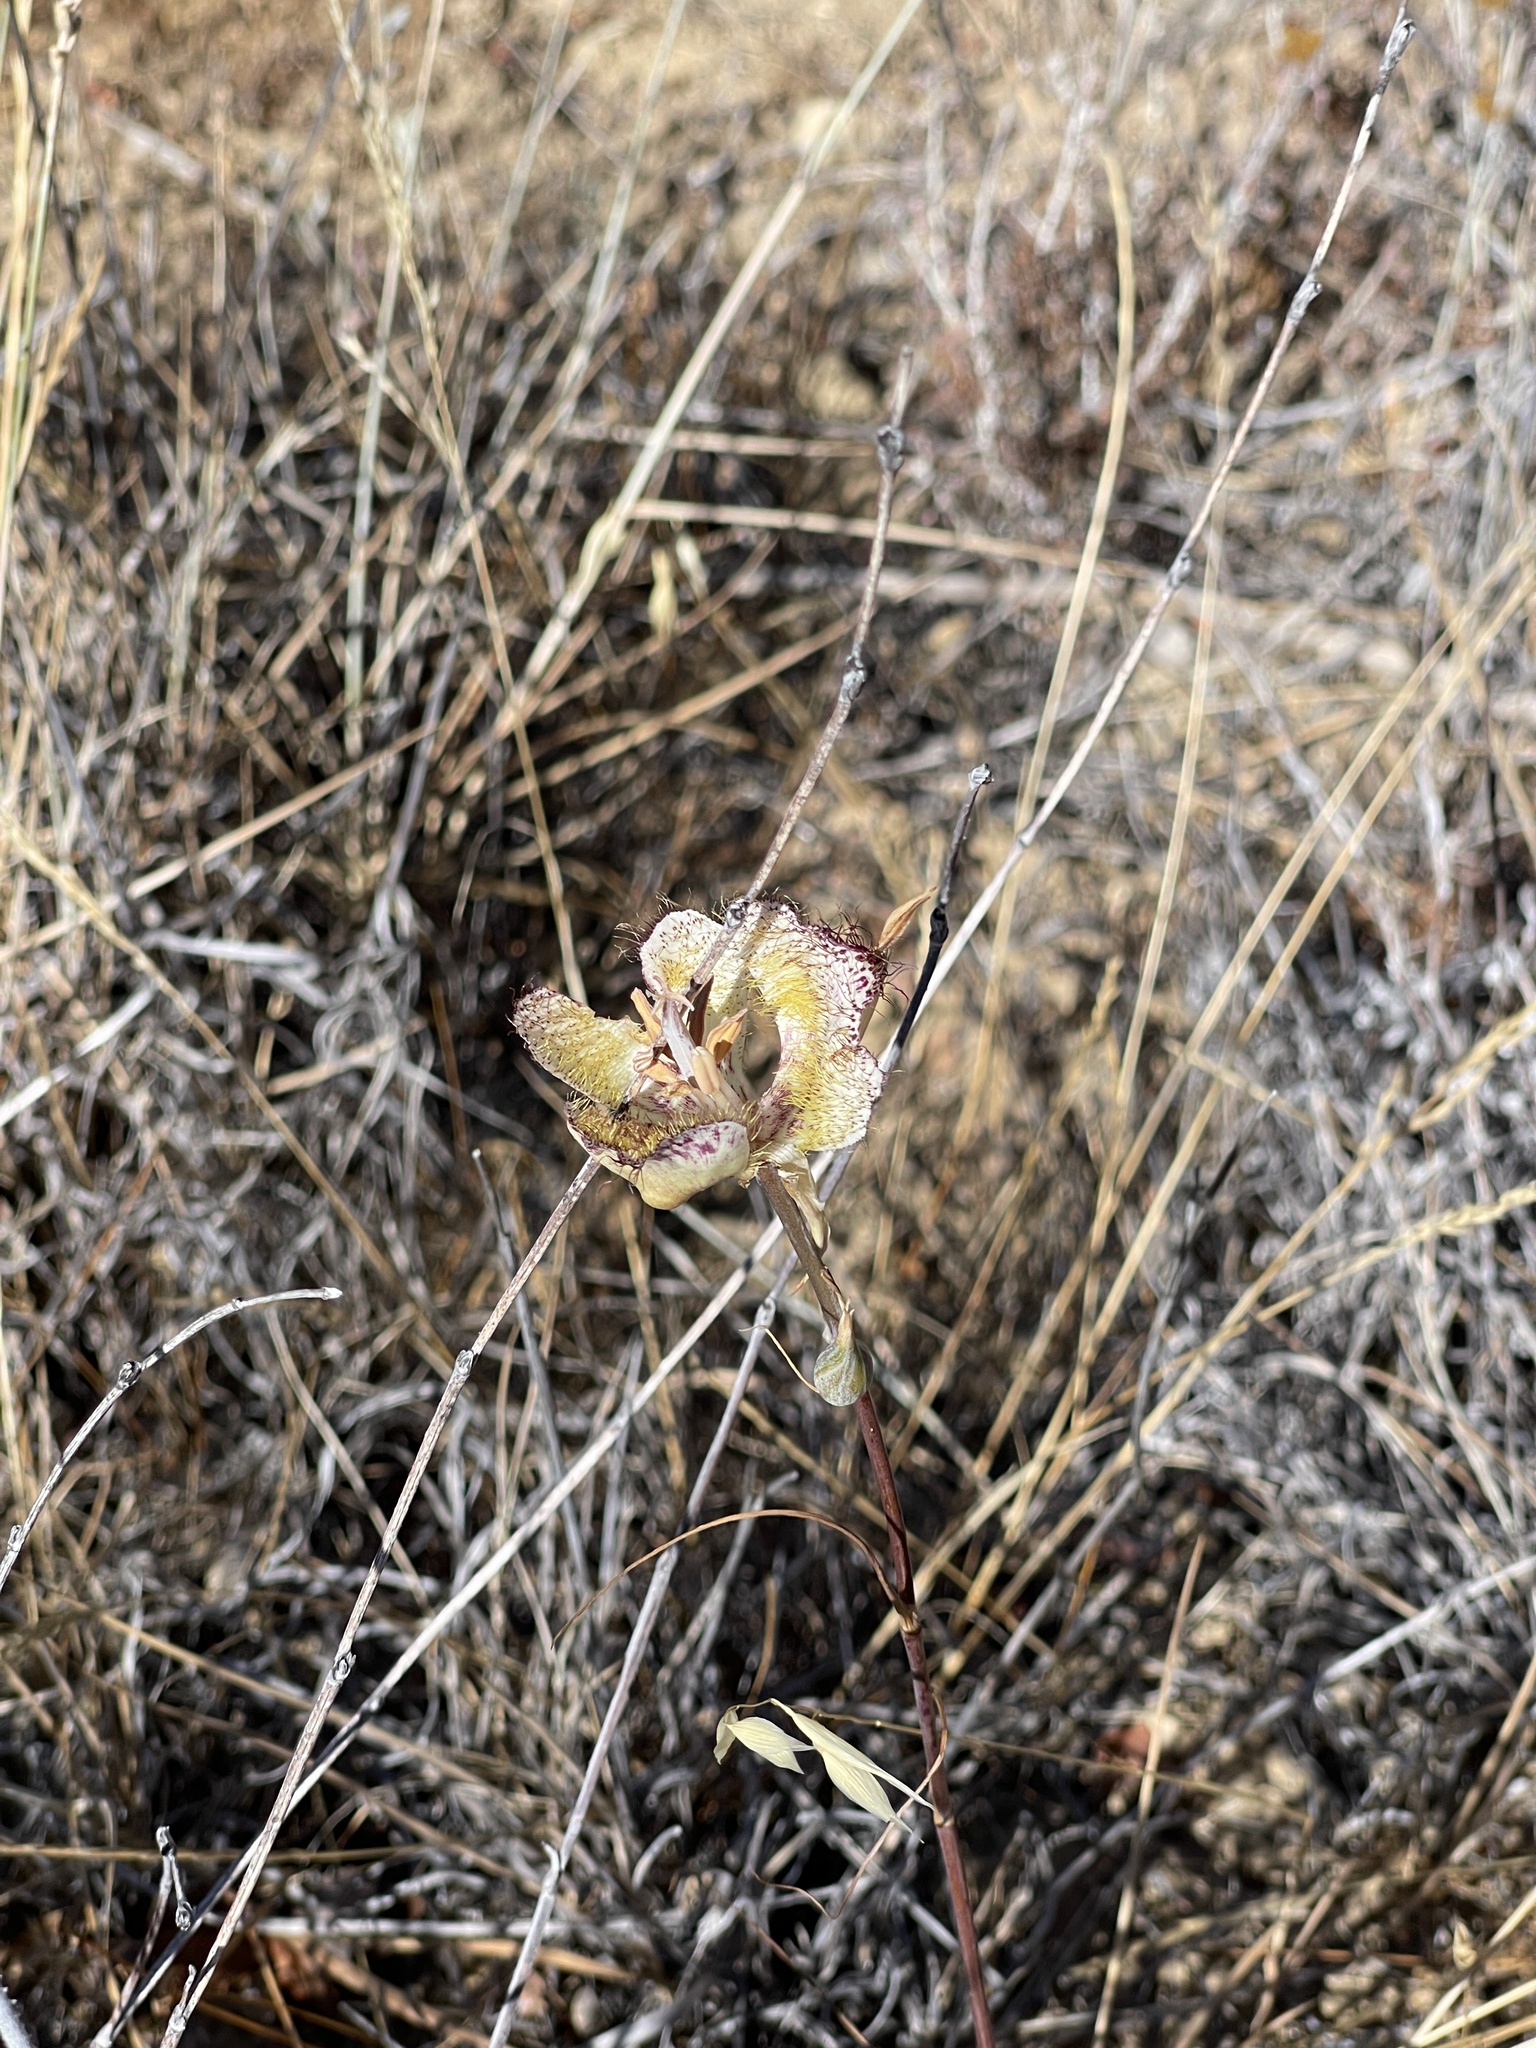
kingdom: Plantae
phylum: Tracheophyta
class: Liliopsida
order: Liliales
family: Liliaceae
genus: Calochortus
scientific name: Calochortus fimbriatus
